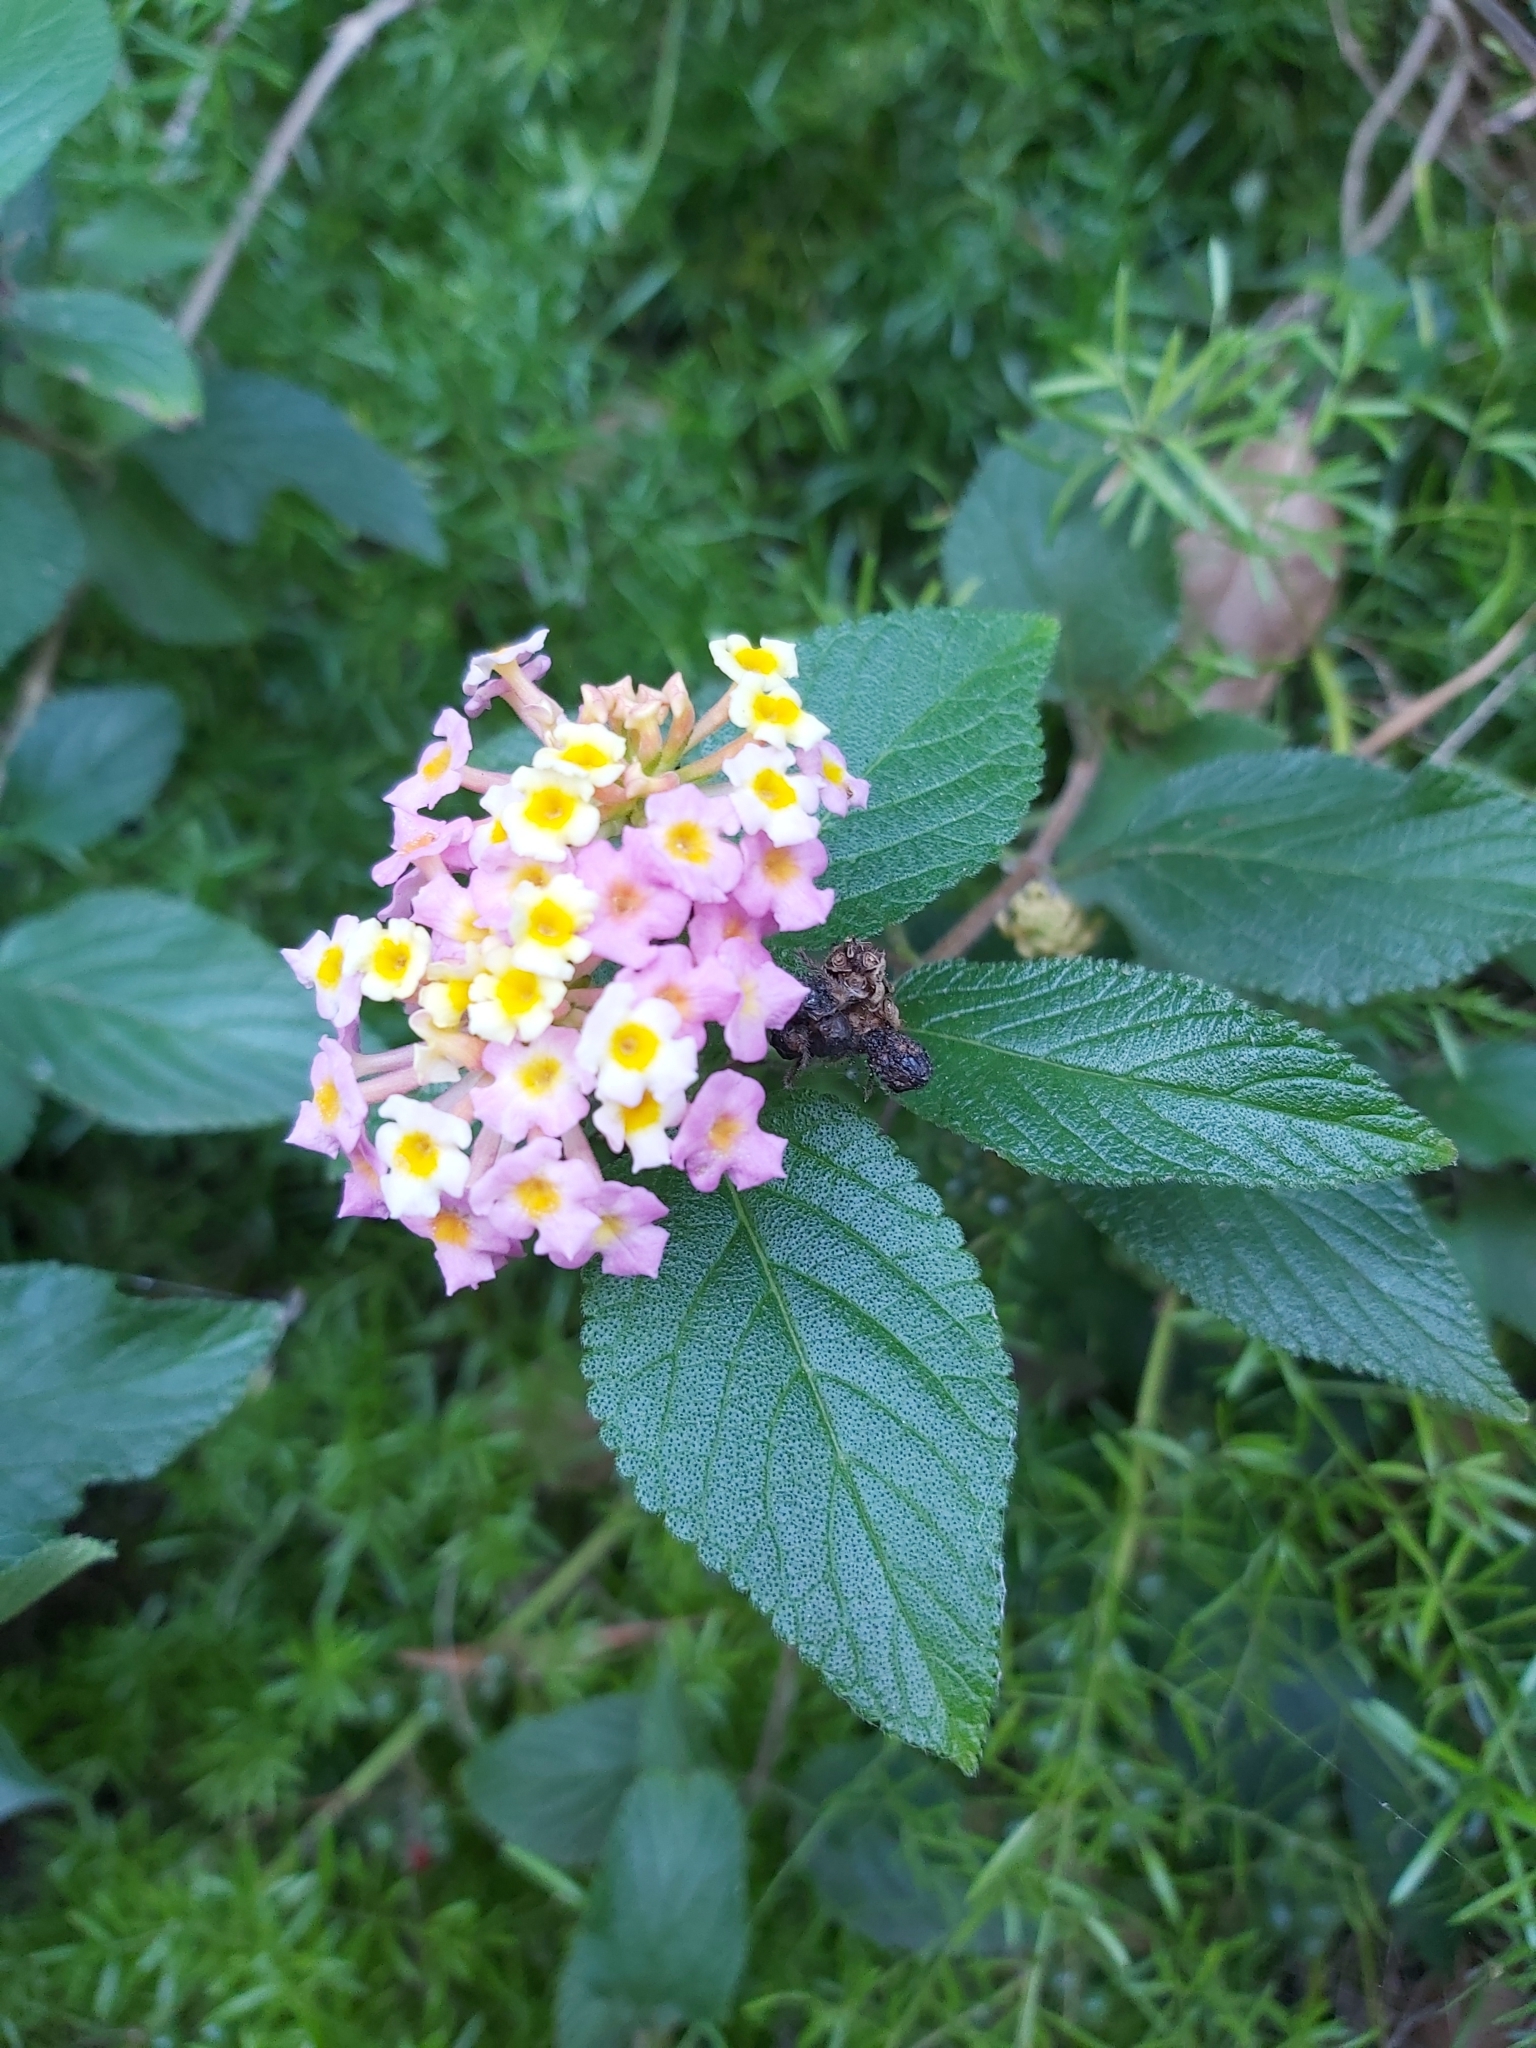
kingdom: Plantae
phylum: Tracheophyta
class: Magnoliopsida
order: Lamiales
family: Verbenaceae
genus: Lantana
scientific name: Lantana camara
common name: Lantana
